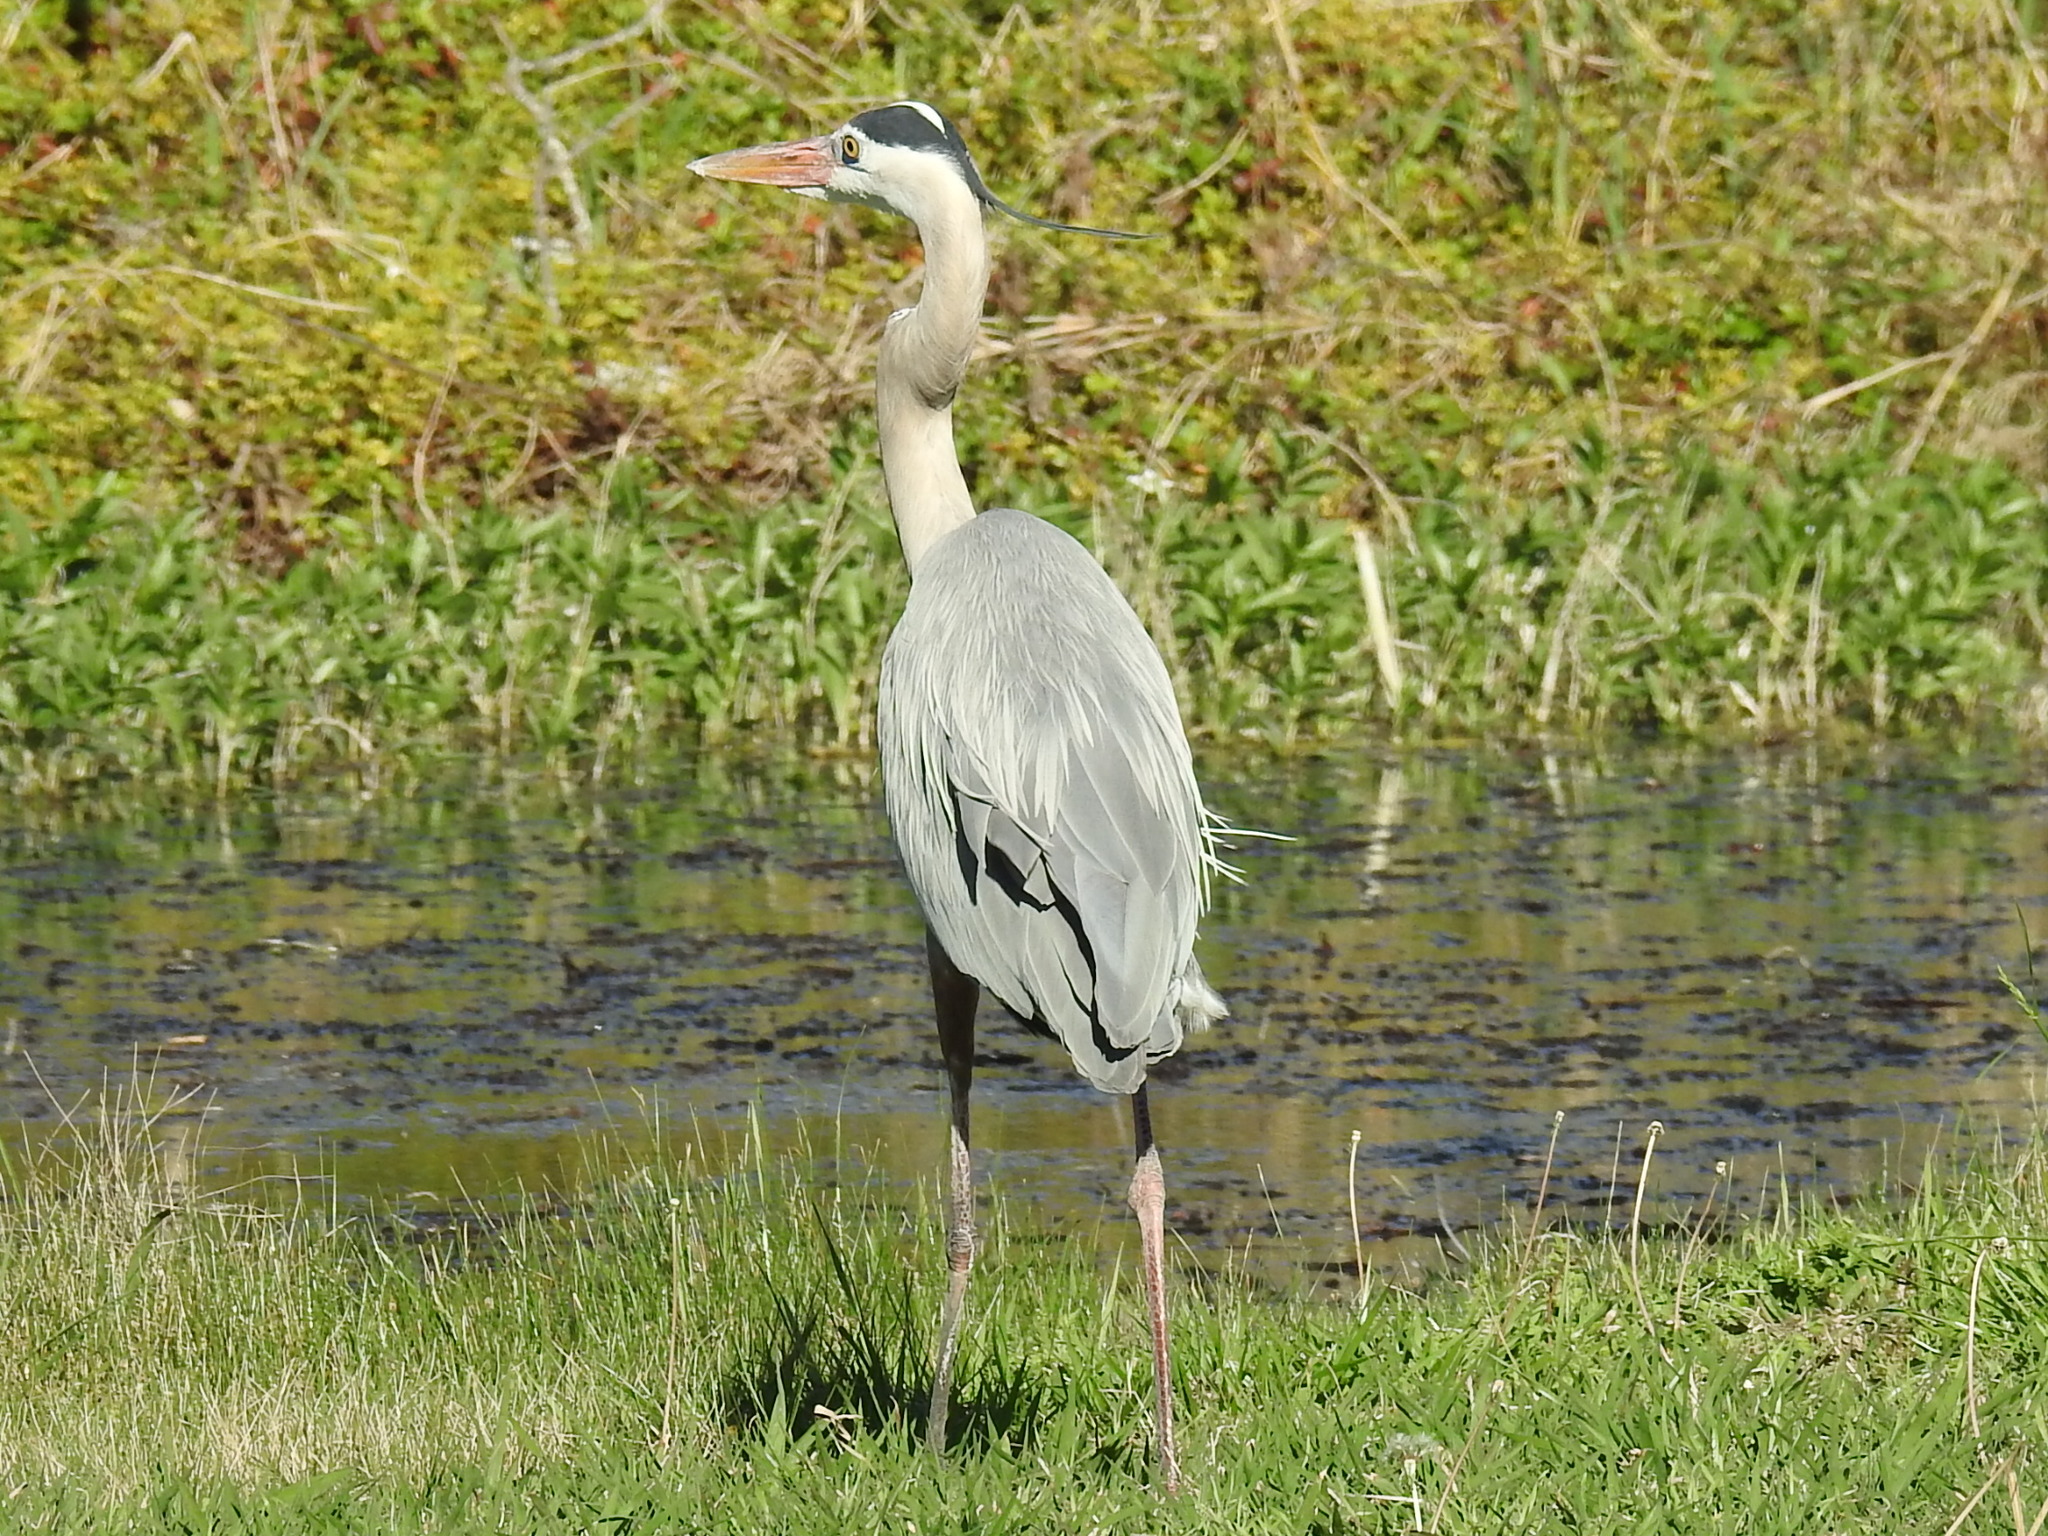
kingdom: Animalia
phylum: Chordata
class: Aves
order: Pelecaniformes
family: Ardeidae
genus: Ardea
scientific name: Ardea herodias
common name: Great blue heron
